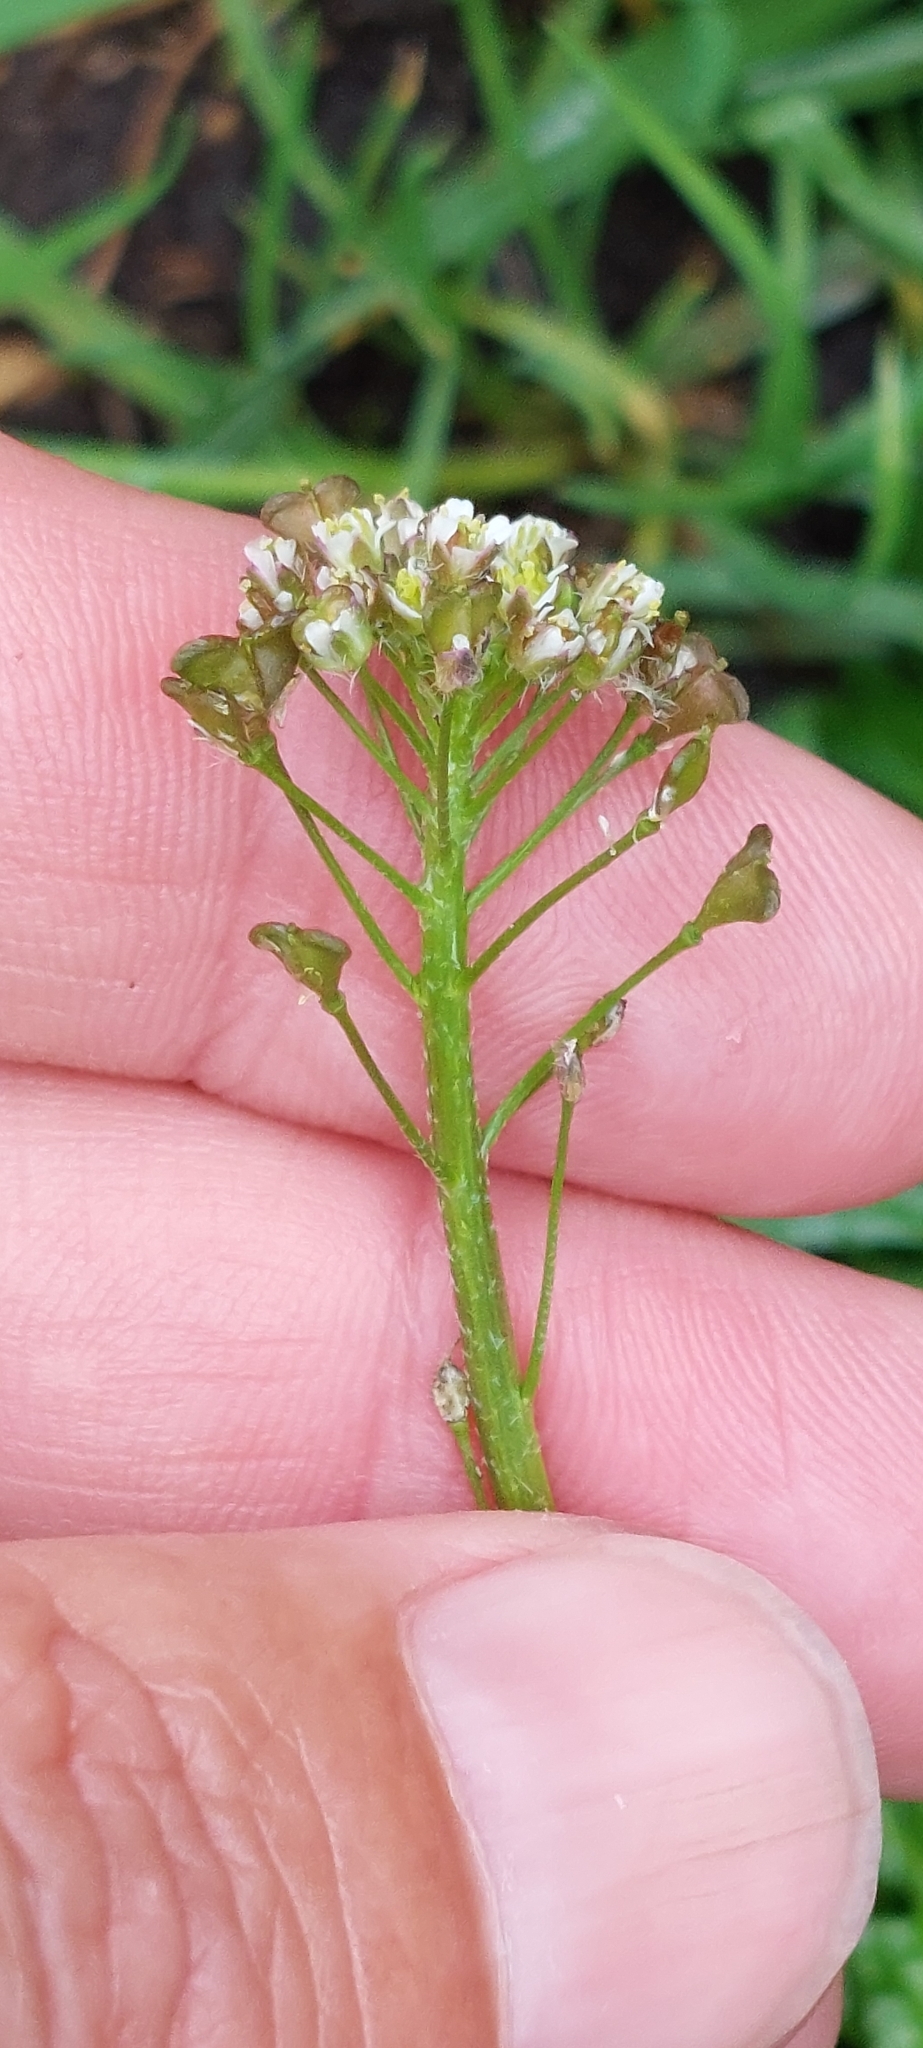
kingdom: Plantae
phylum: Tracheophyta
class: Magnoliopsida
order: Brassicales
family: Brassicaceae
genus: Capsella
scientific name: Capsella bursa-pastoris
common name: Shepherd's purse
